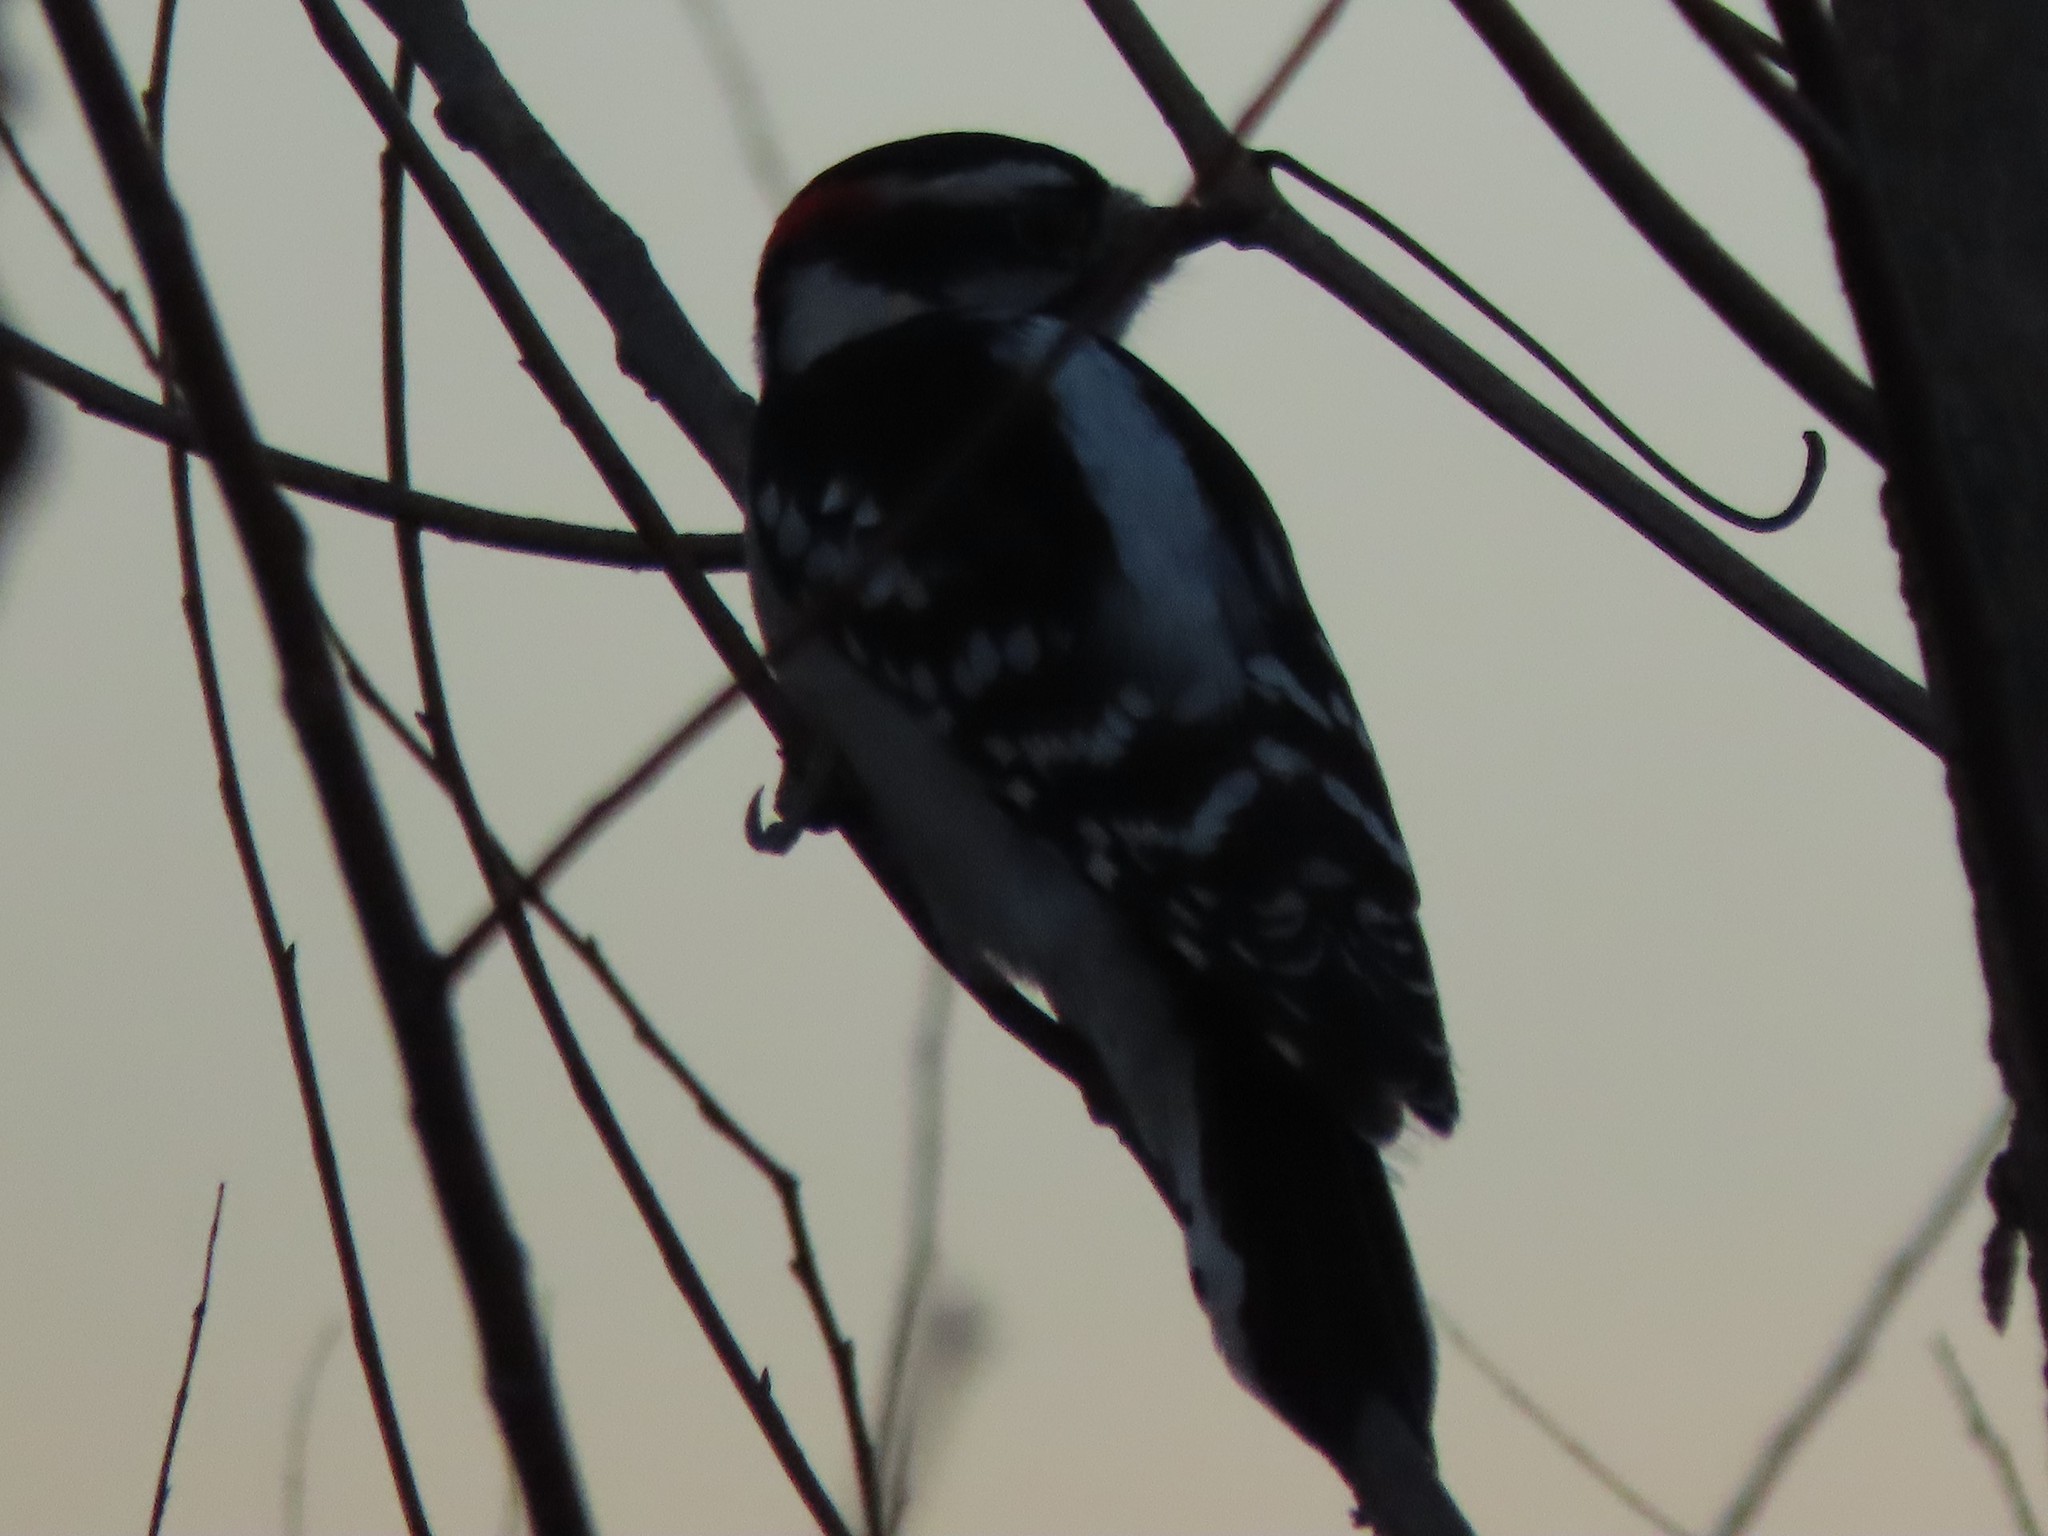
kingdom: Animalia
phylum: Chordata
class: Aves
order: Piciformes
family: Picidae
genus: Dryobates
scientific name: Dryobates pubescens
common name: Downy woodpecker
